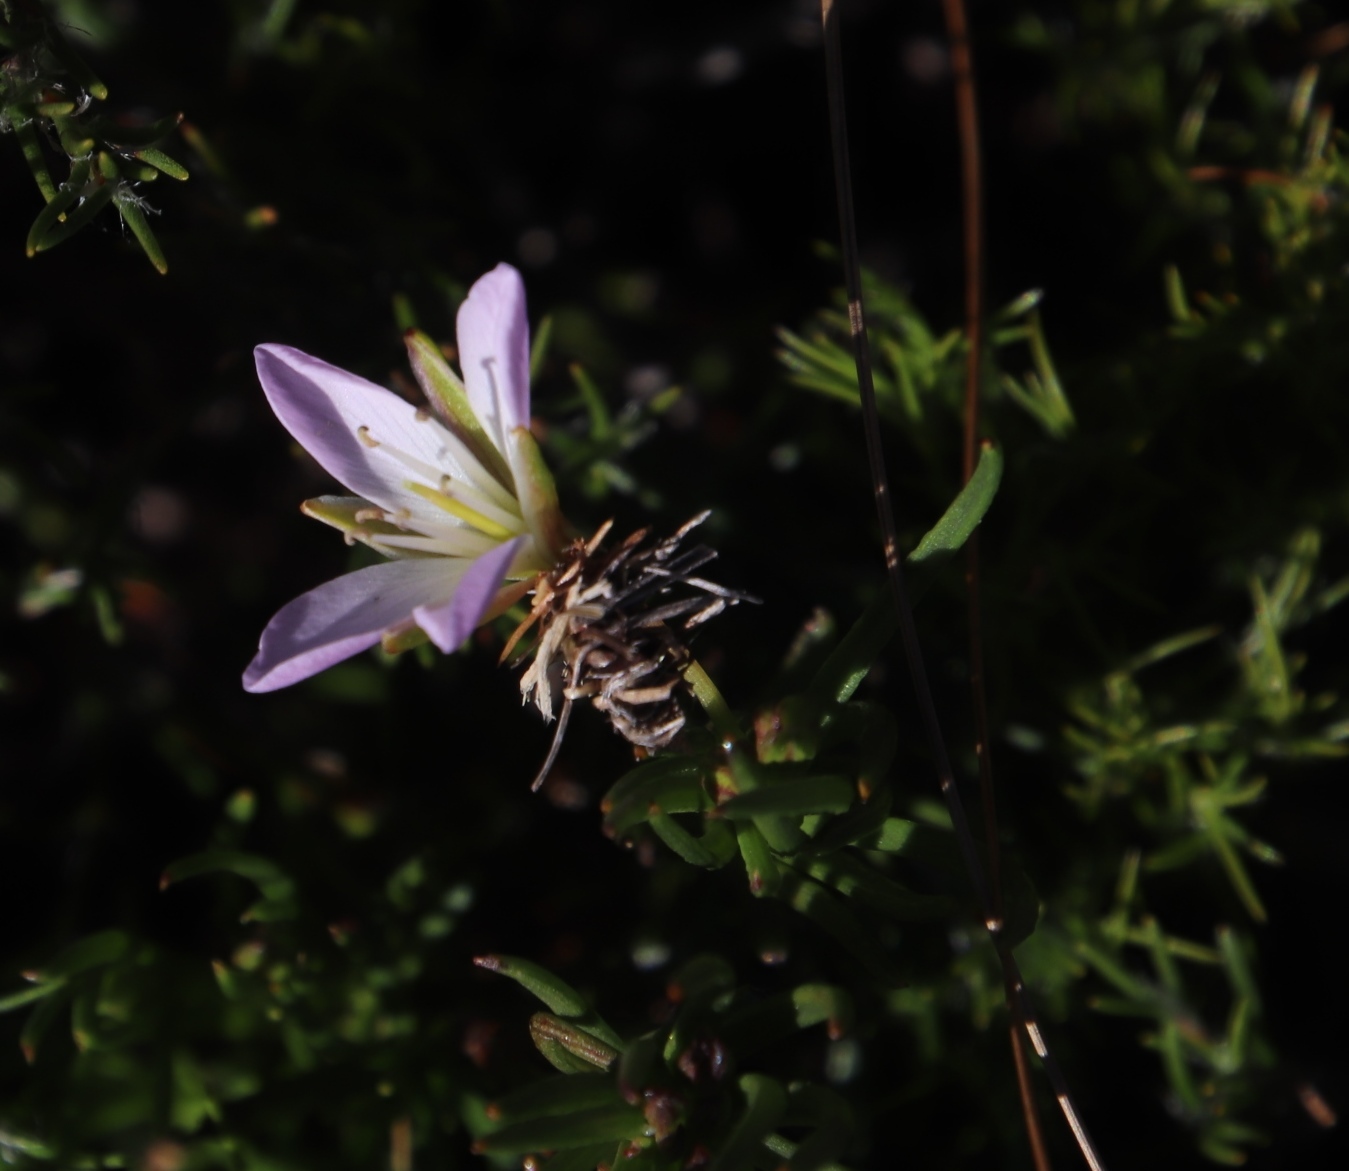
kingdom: Plantae
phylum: Tracheophyta
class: Magnoliopsida
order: Brassicales
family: Brassicaceae
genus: Heliophila
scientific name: Heliophila scoparia
